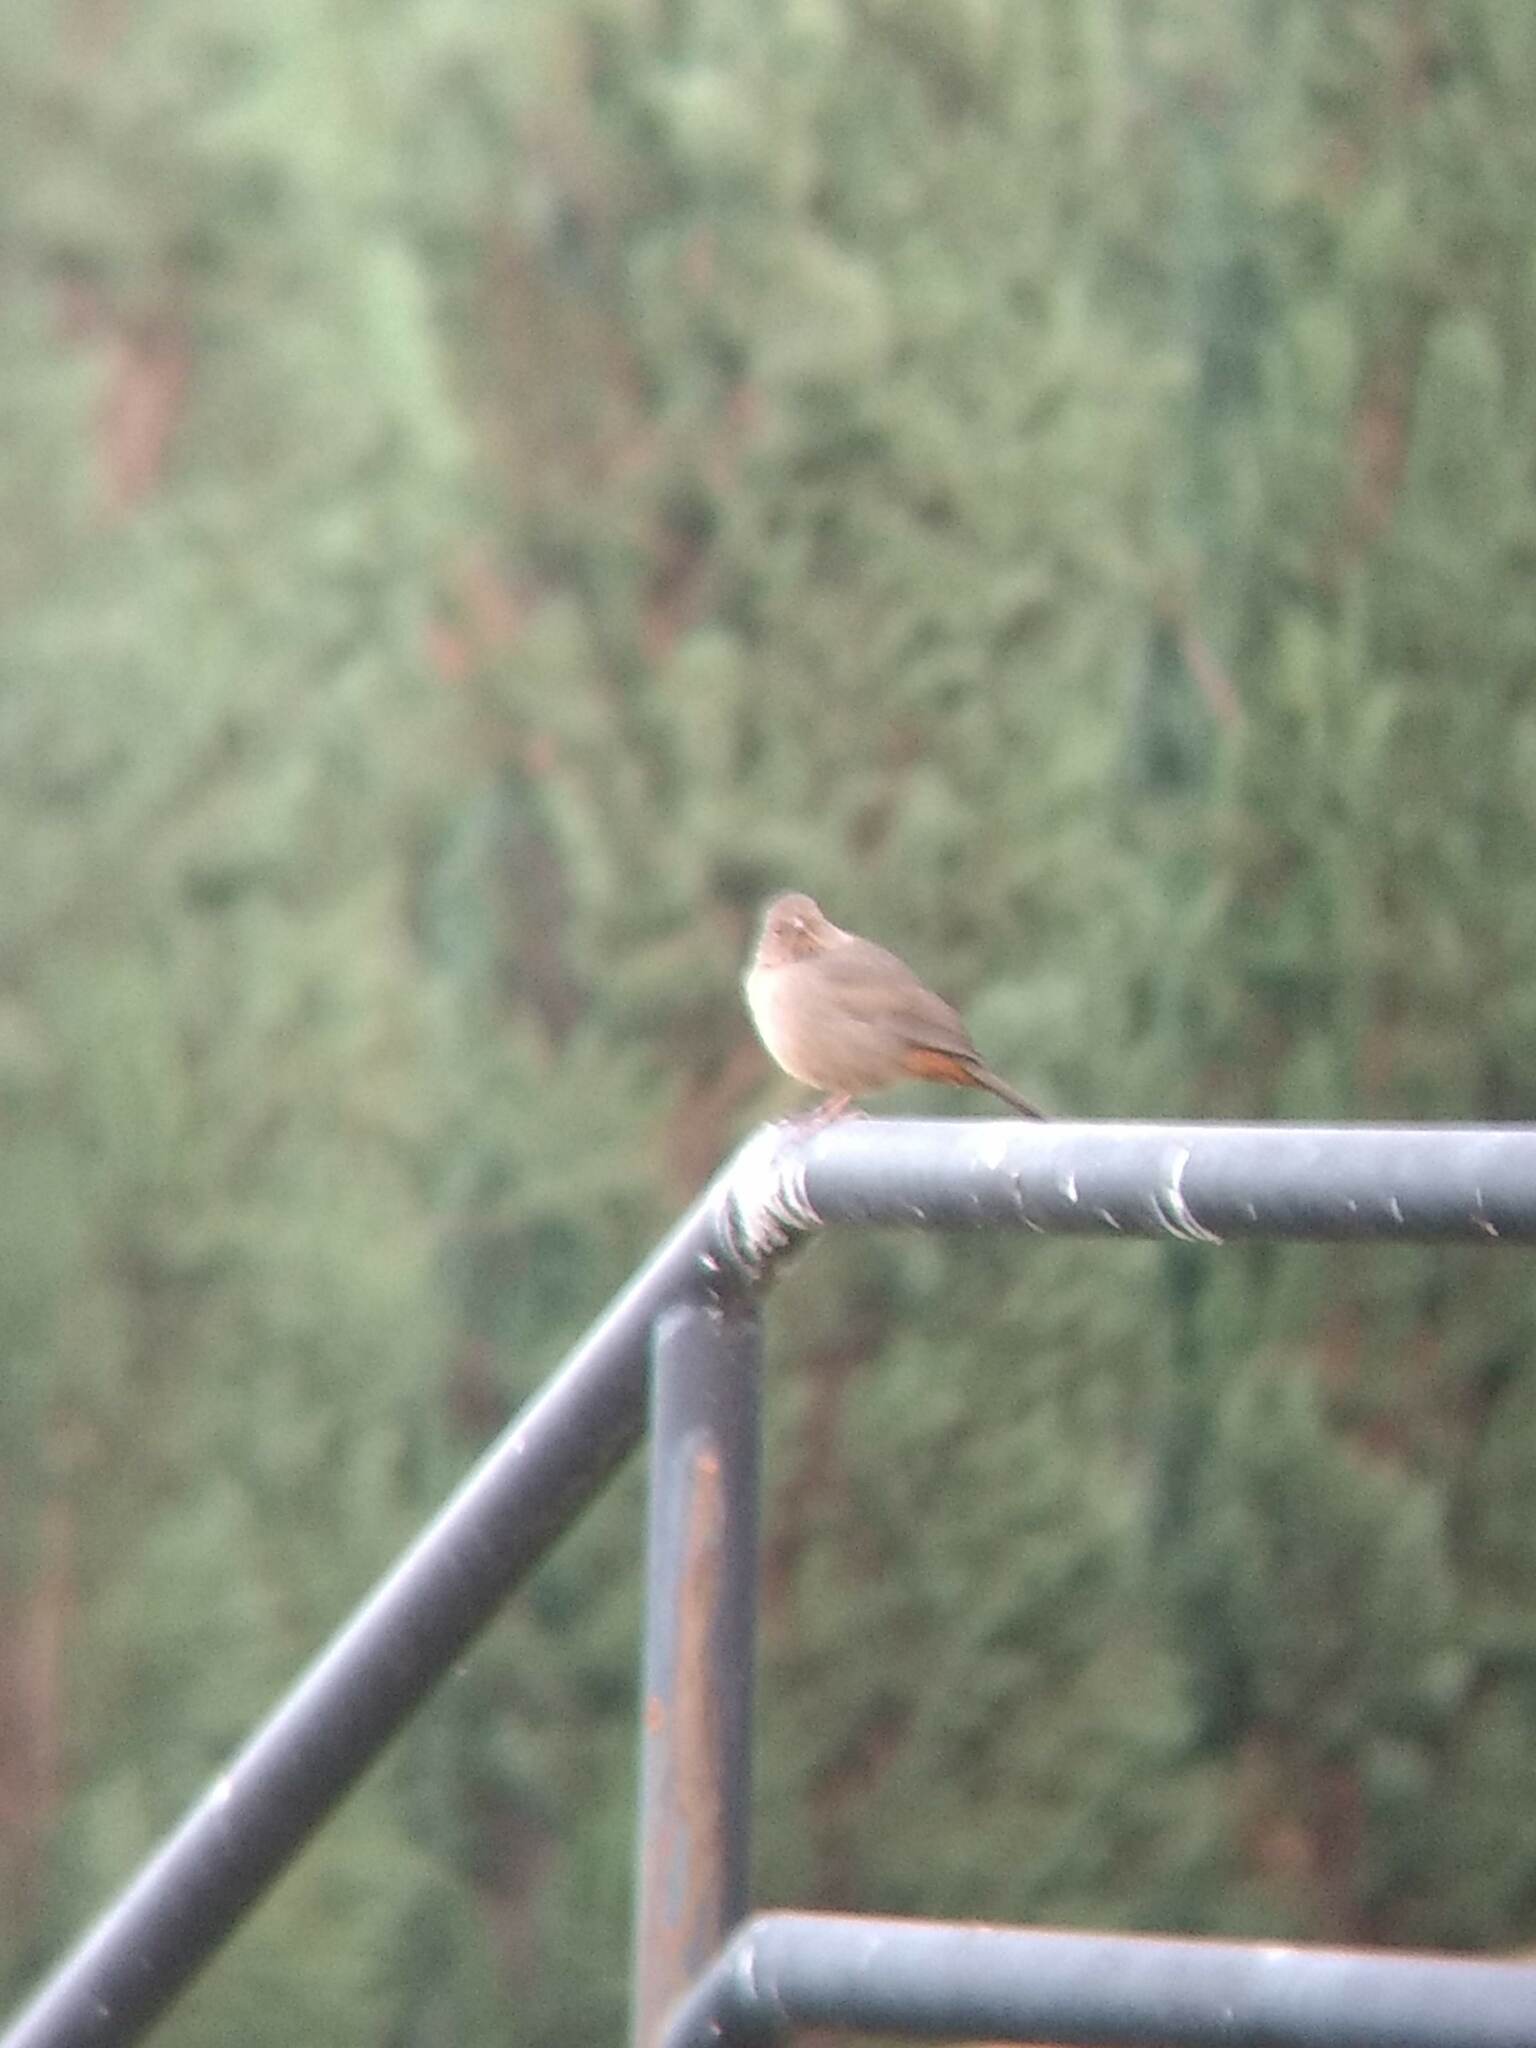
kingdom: Animalia
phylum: Chordata
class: Aves
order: Passeriformes
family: Passerellidae
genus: Melozone
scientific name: Melozone crissalis
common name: California towhee
